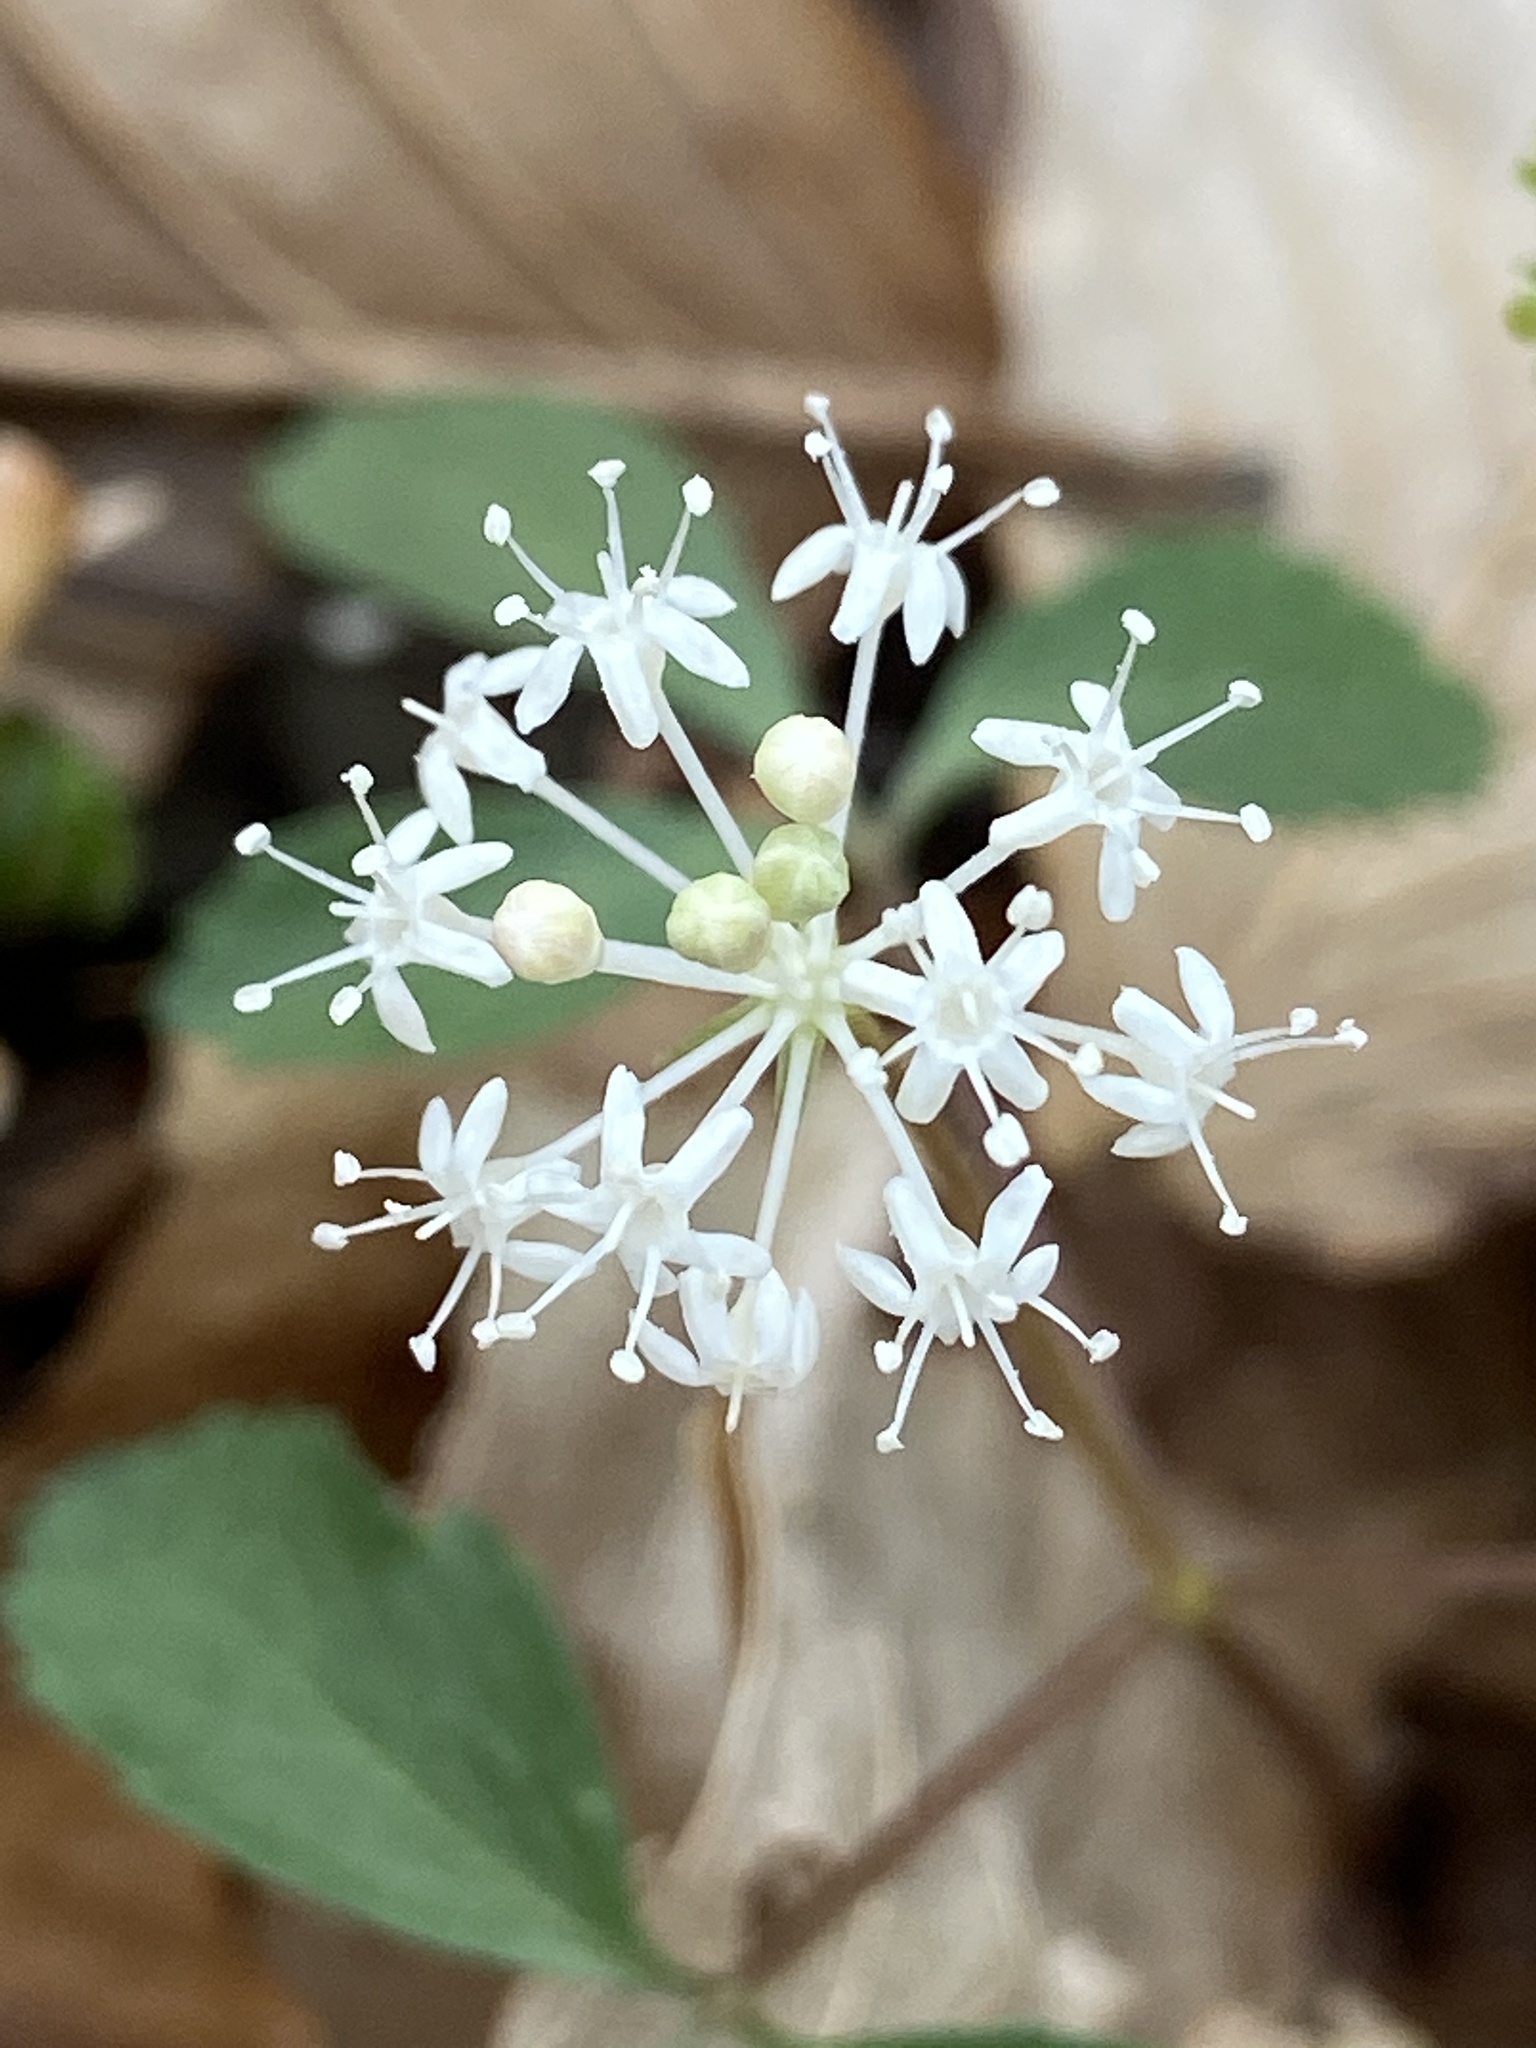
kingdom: Plantae
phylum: Tracheophyta
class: Magnoliopsida
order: Apiales
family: Araliaceae
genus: Panax
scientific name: Panax trifolius
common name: Dwarf ginseng
